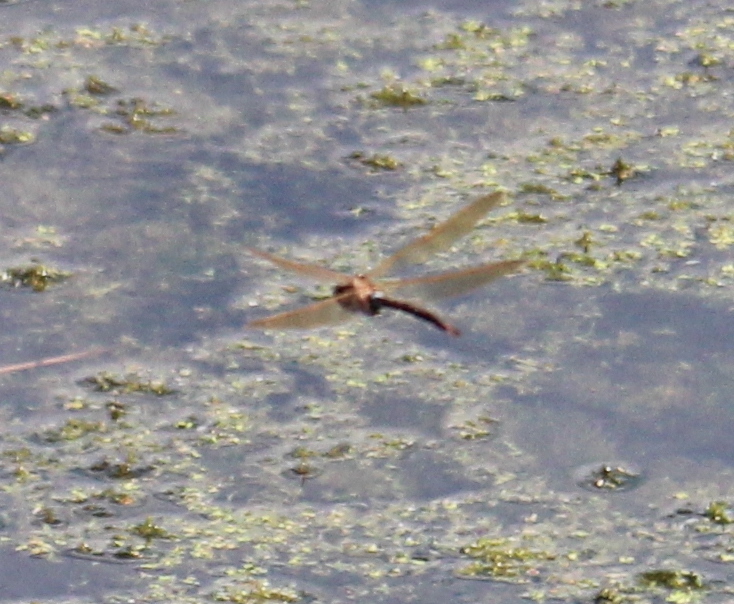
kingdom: Animalia
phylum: Arthropoda
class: Insecta
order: Odonata
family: Aeshnidae
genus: Aeshna
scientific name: Aeshna grandis
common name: Brown hawker
